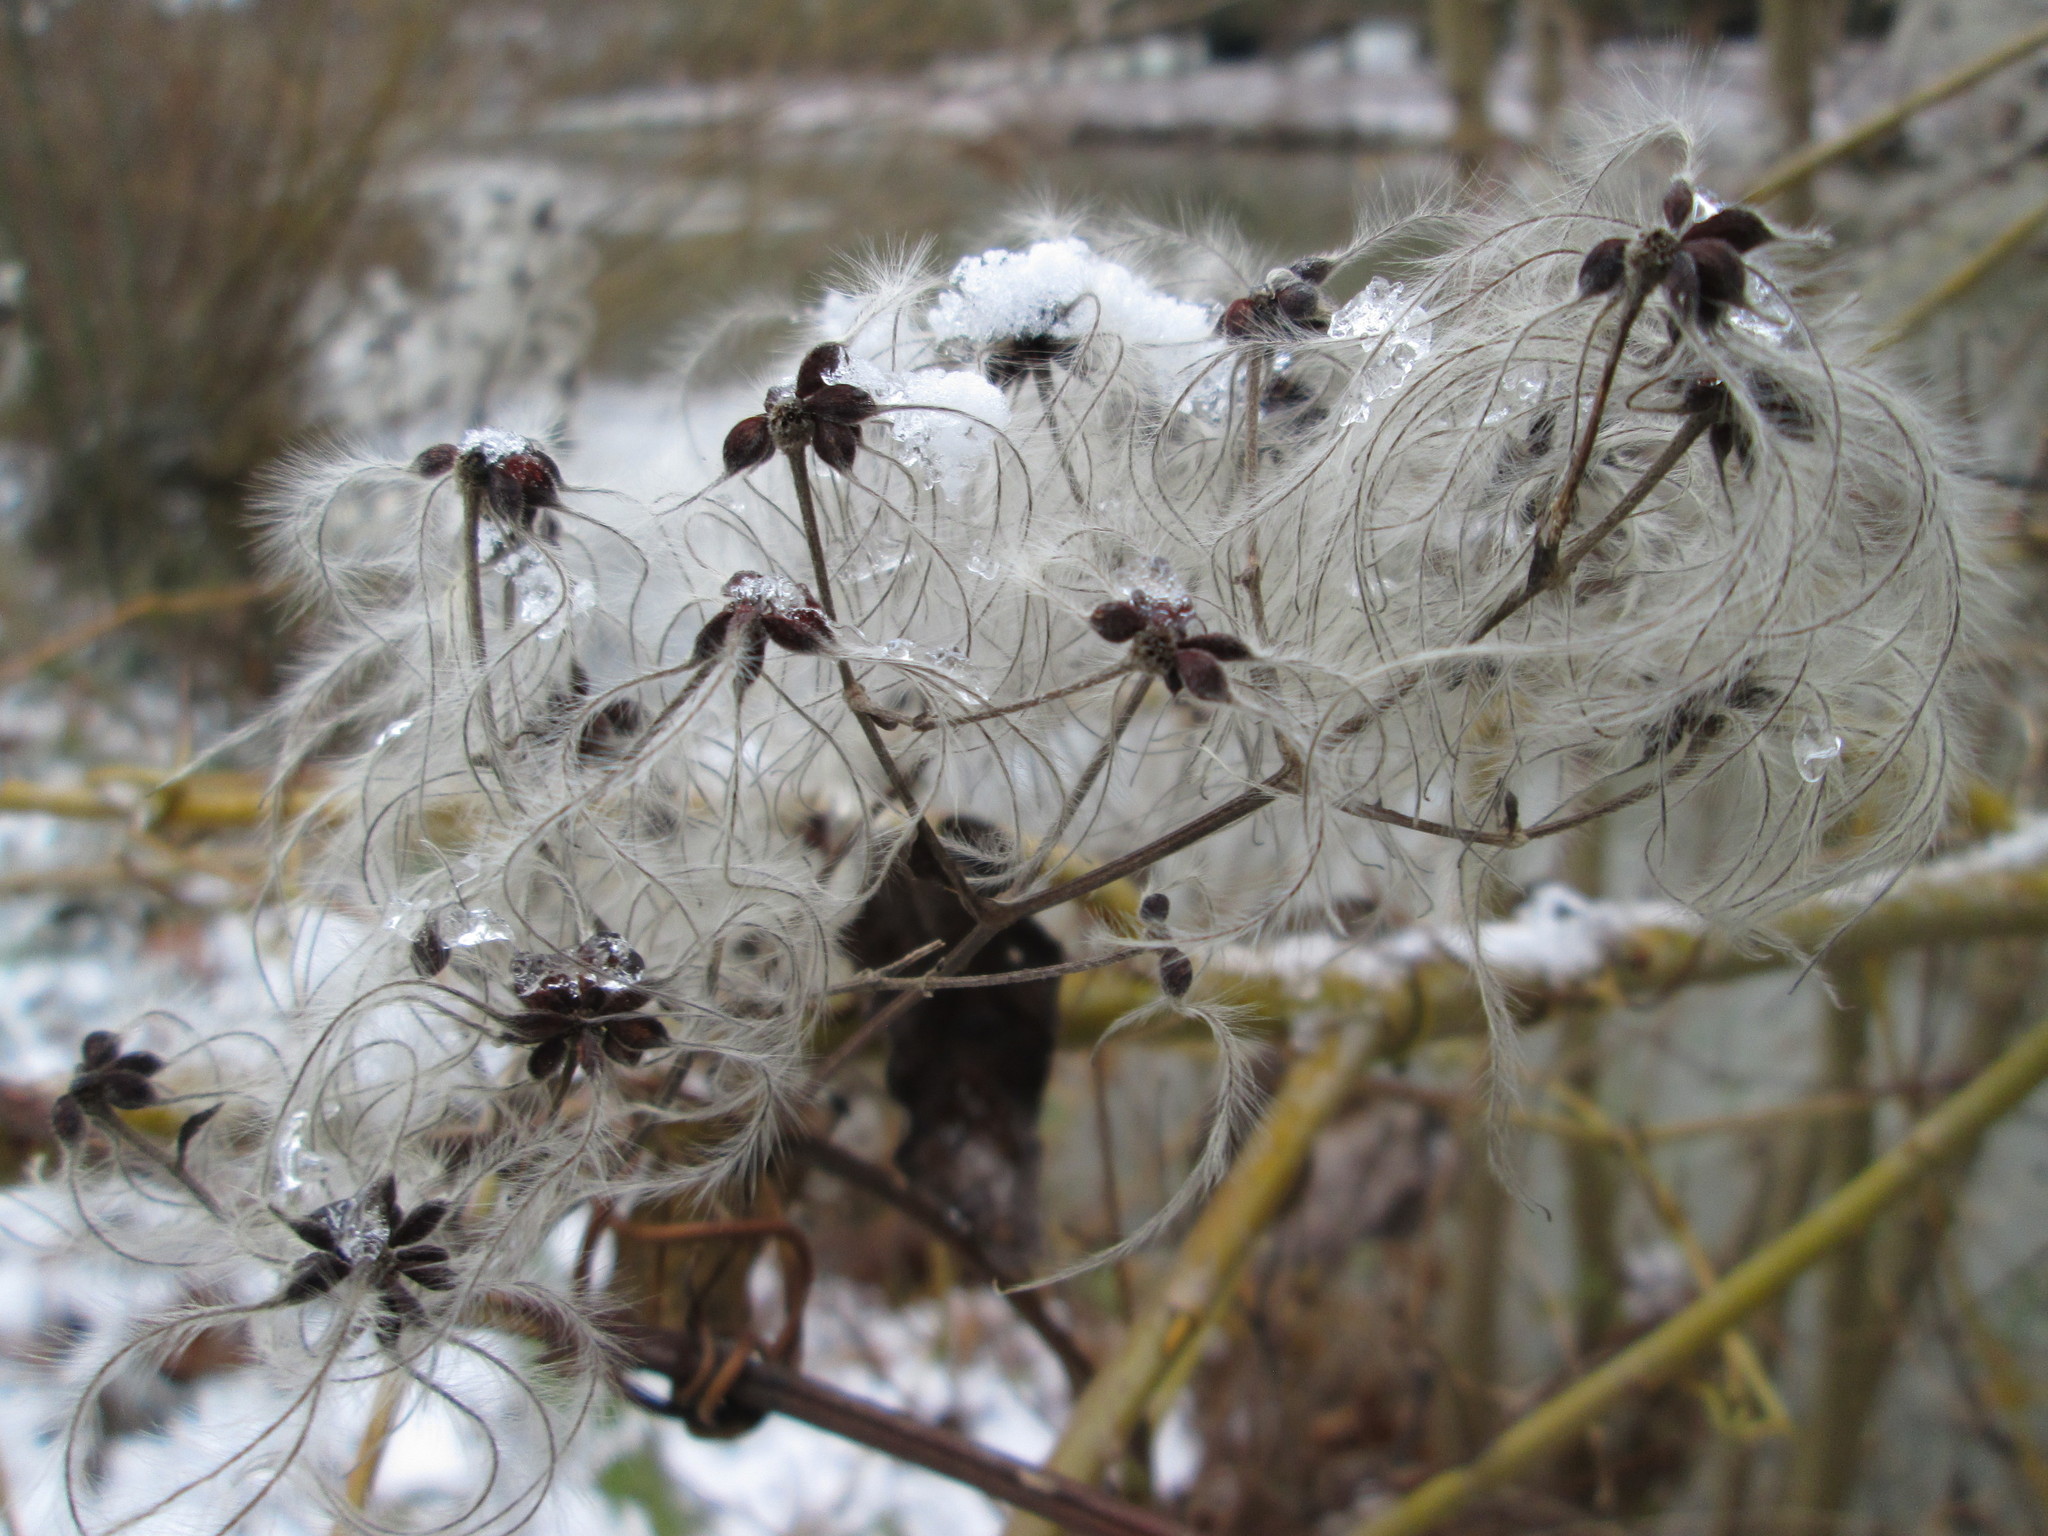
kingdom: Plantae
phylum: Tracheophyta
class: Magnoliopsida
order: Ranunculales
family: Ranunculaceae
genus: Clematis
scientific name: Clematis vitalba
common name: Evergreen clematis
